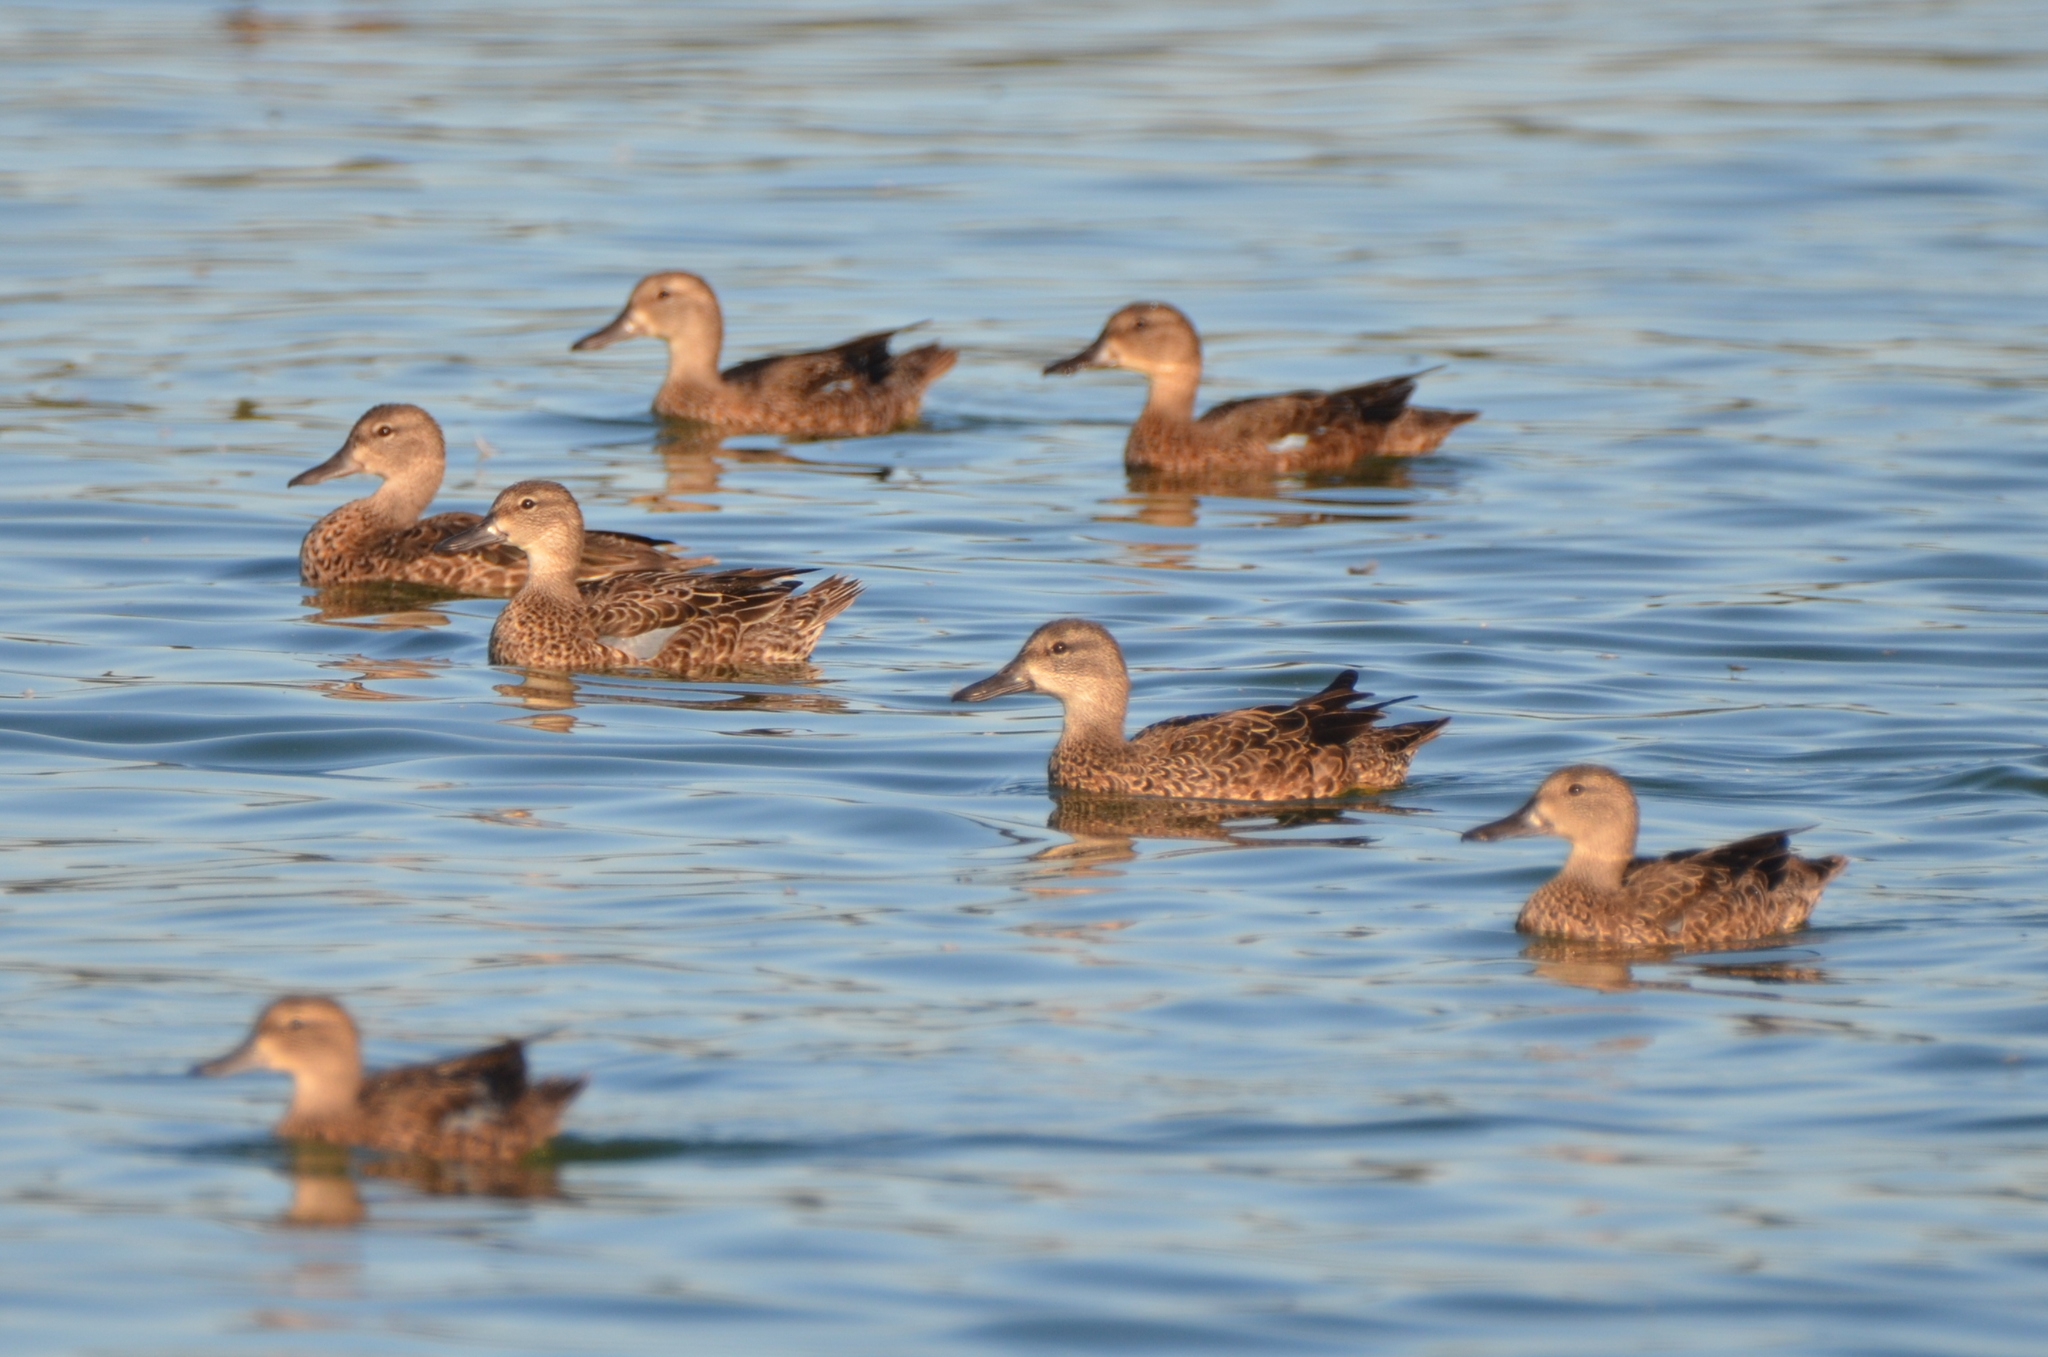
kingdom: Animalia
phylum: Chordata
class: Aves
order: Anseriformes
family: Anatidae
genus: Spatula
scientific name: Spatula discors
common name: Blue-winged teal
